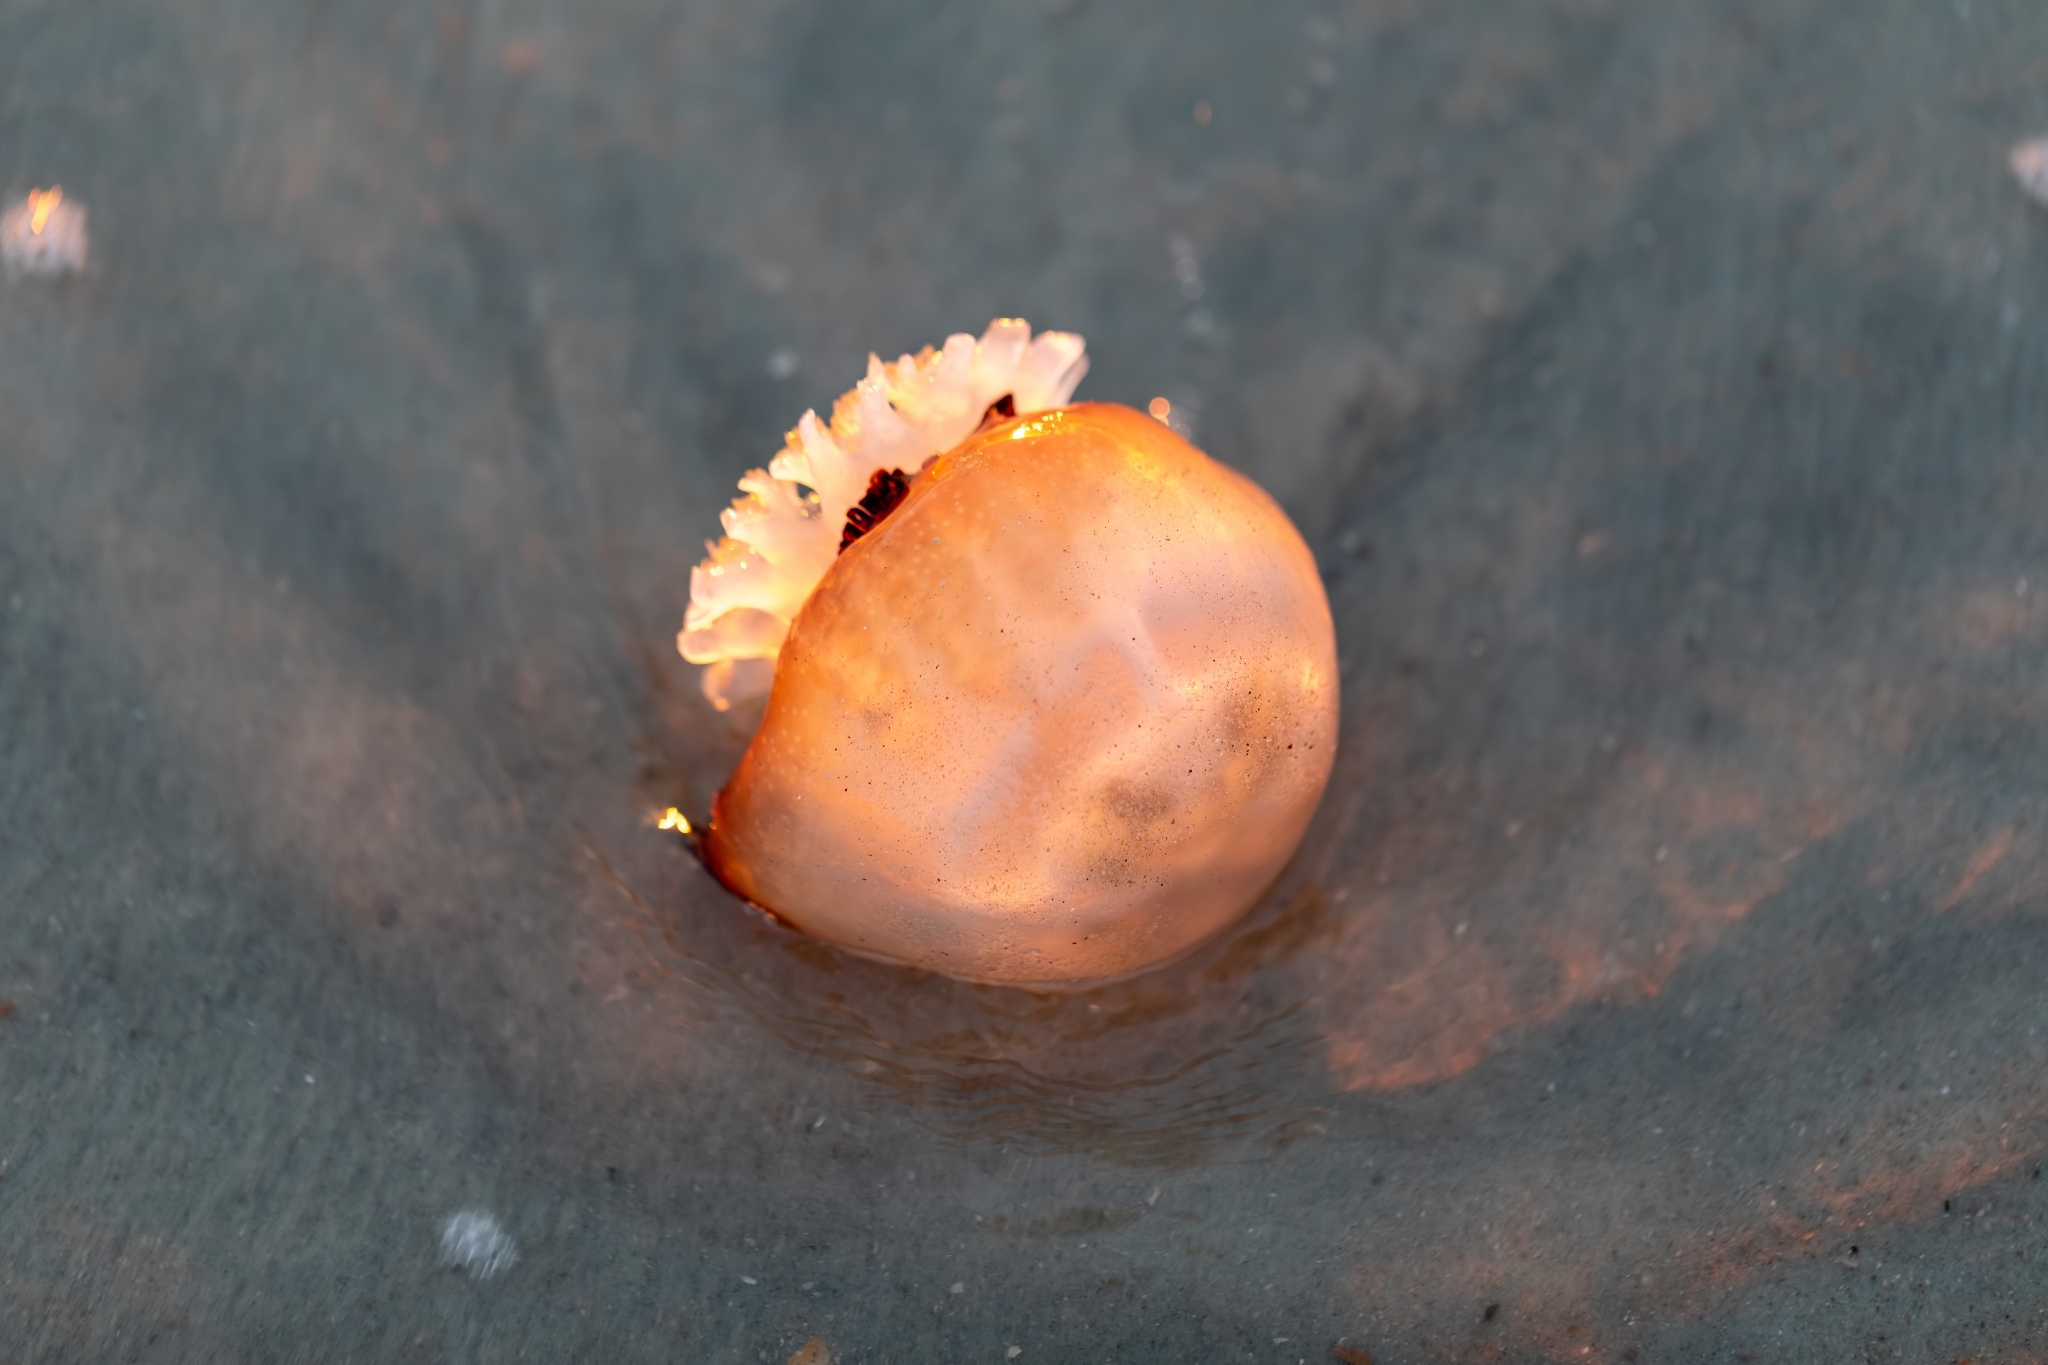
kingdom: Animalia
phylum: Cnidaria
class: Scyphozoa
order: Rhizostomeae
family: Stomolophidae
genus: Stomolophus
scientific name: Stomolophus meleagris
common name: Cabbagehead
